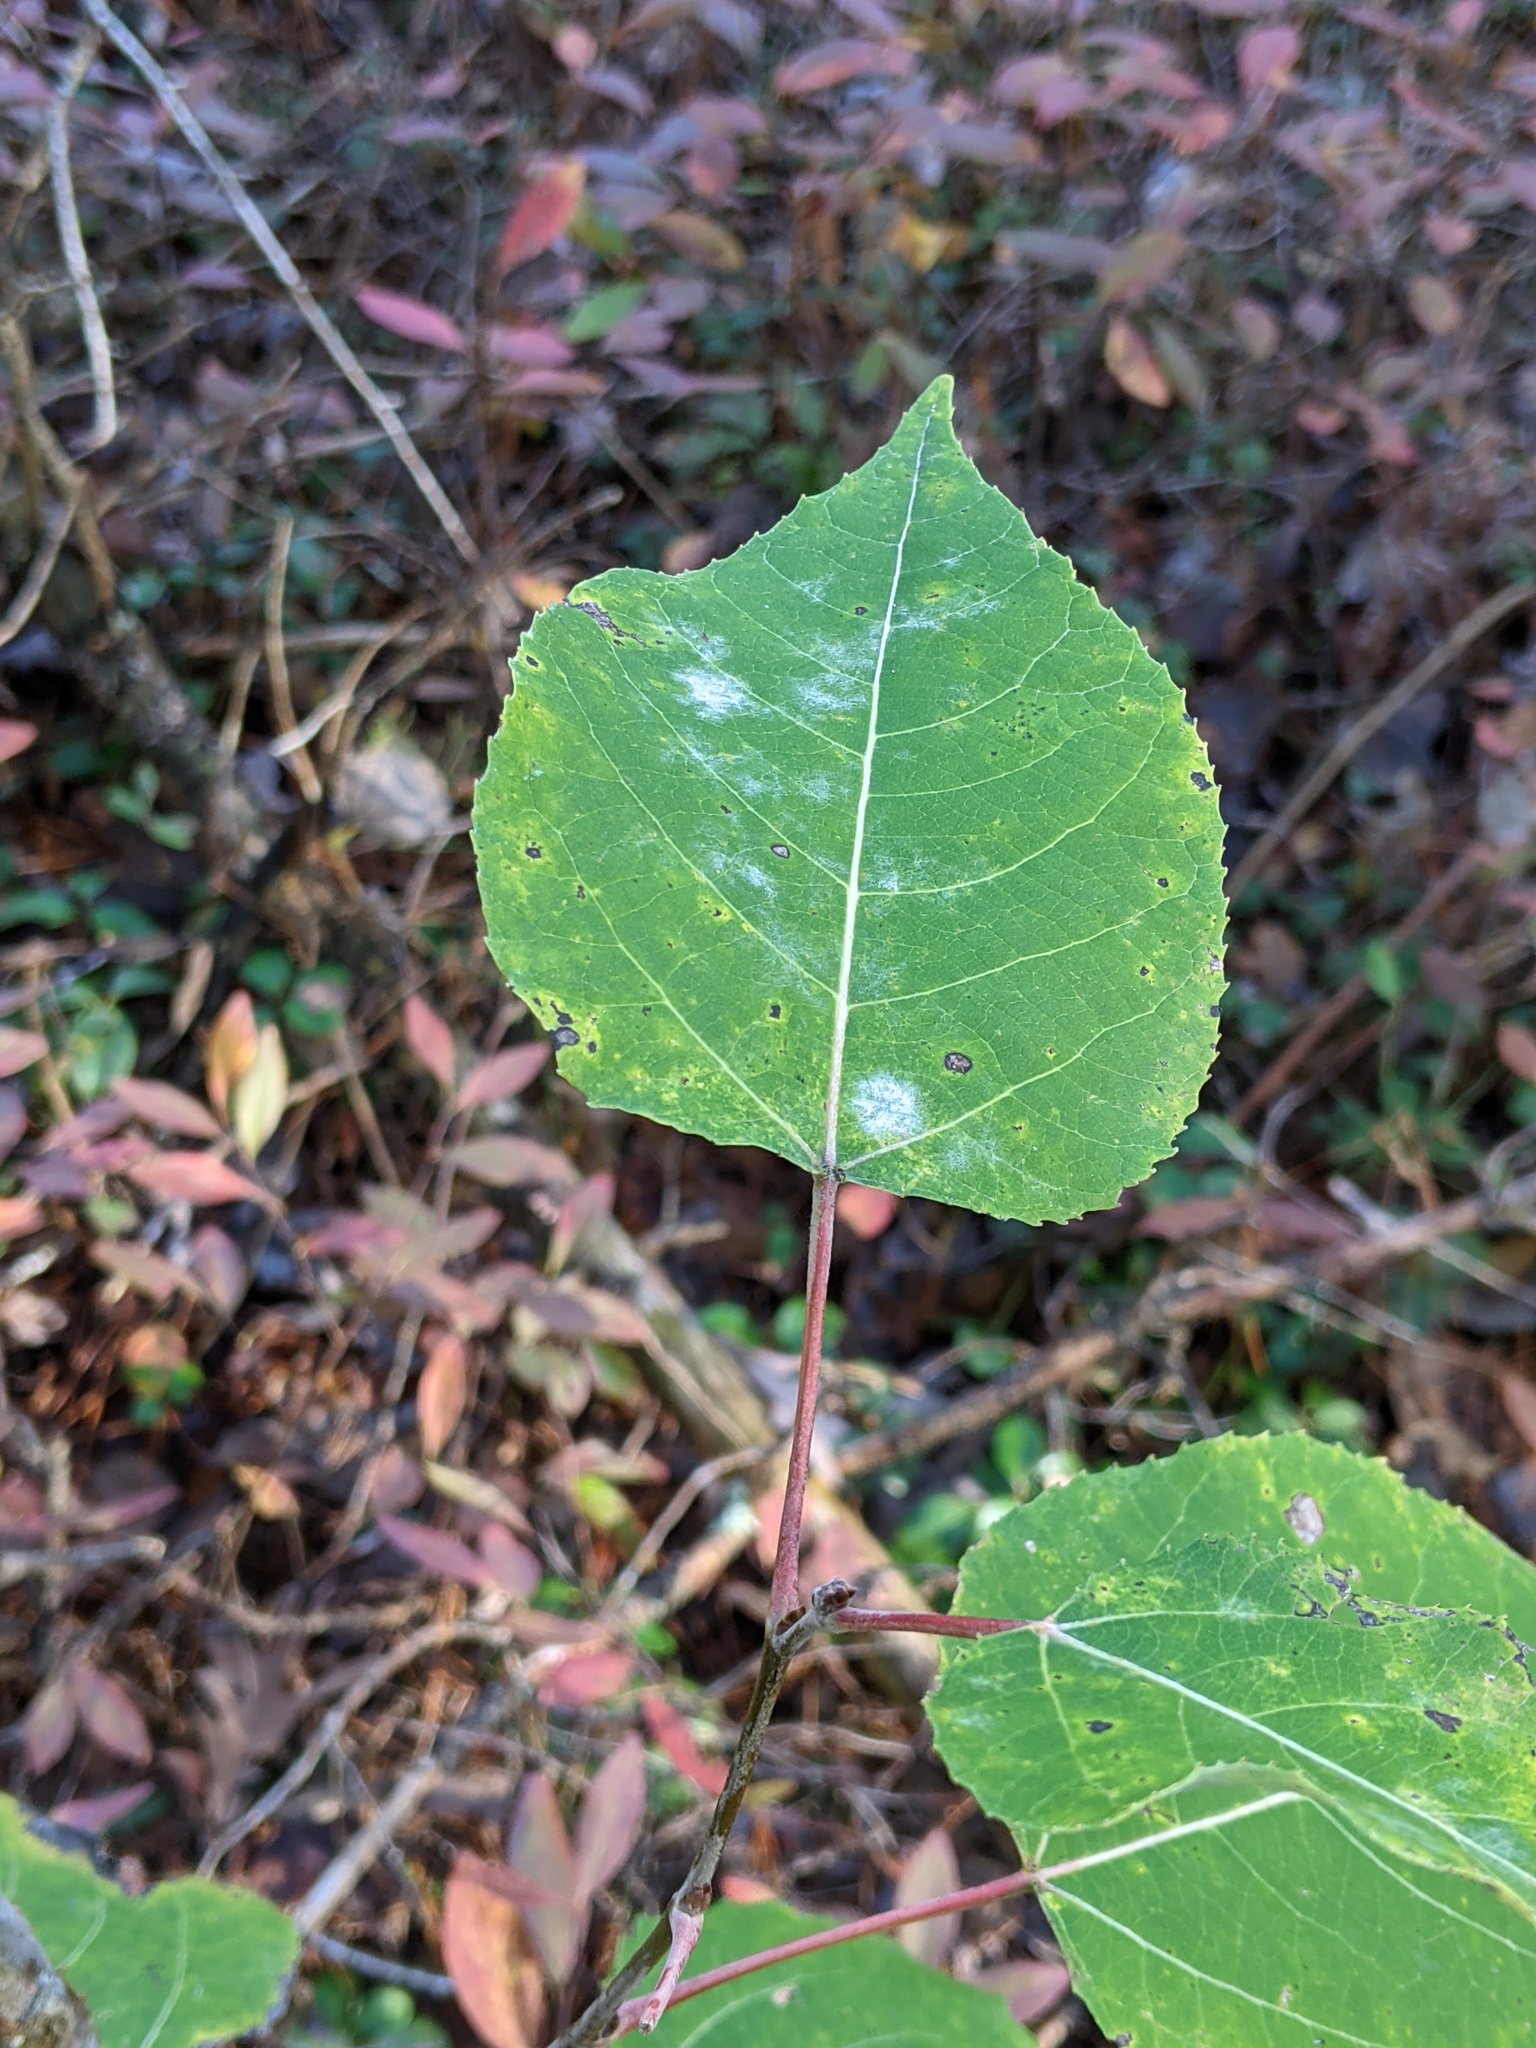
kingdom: Plantae
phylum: Tracheophyta
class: Magnoliopsida
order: Malpighiales
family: Salicaceae
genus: Populus
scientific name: Populus deltoides
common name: Eastern cottonwood
